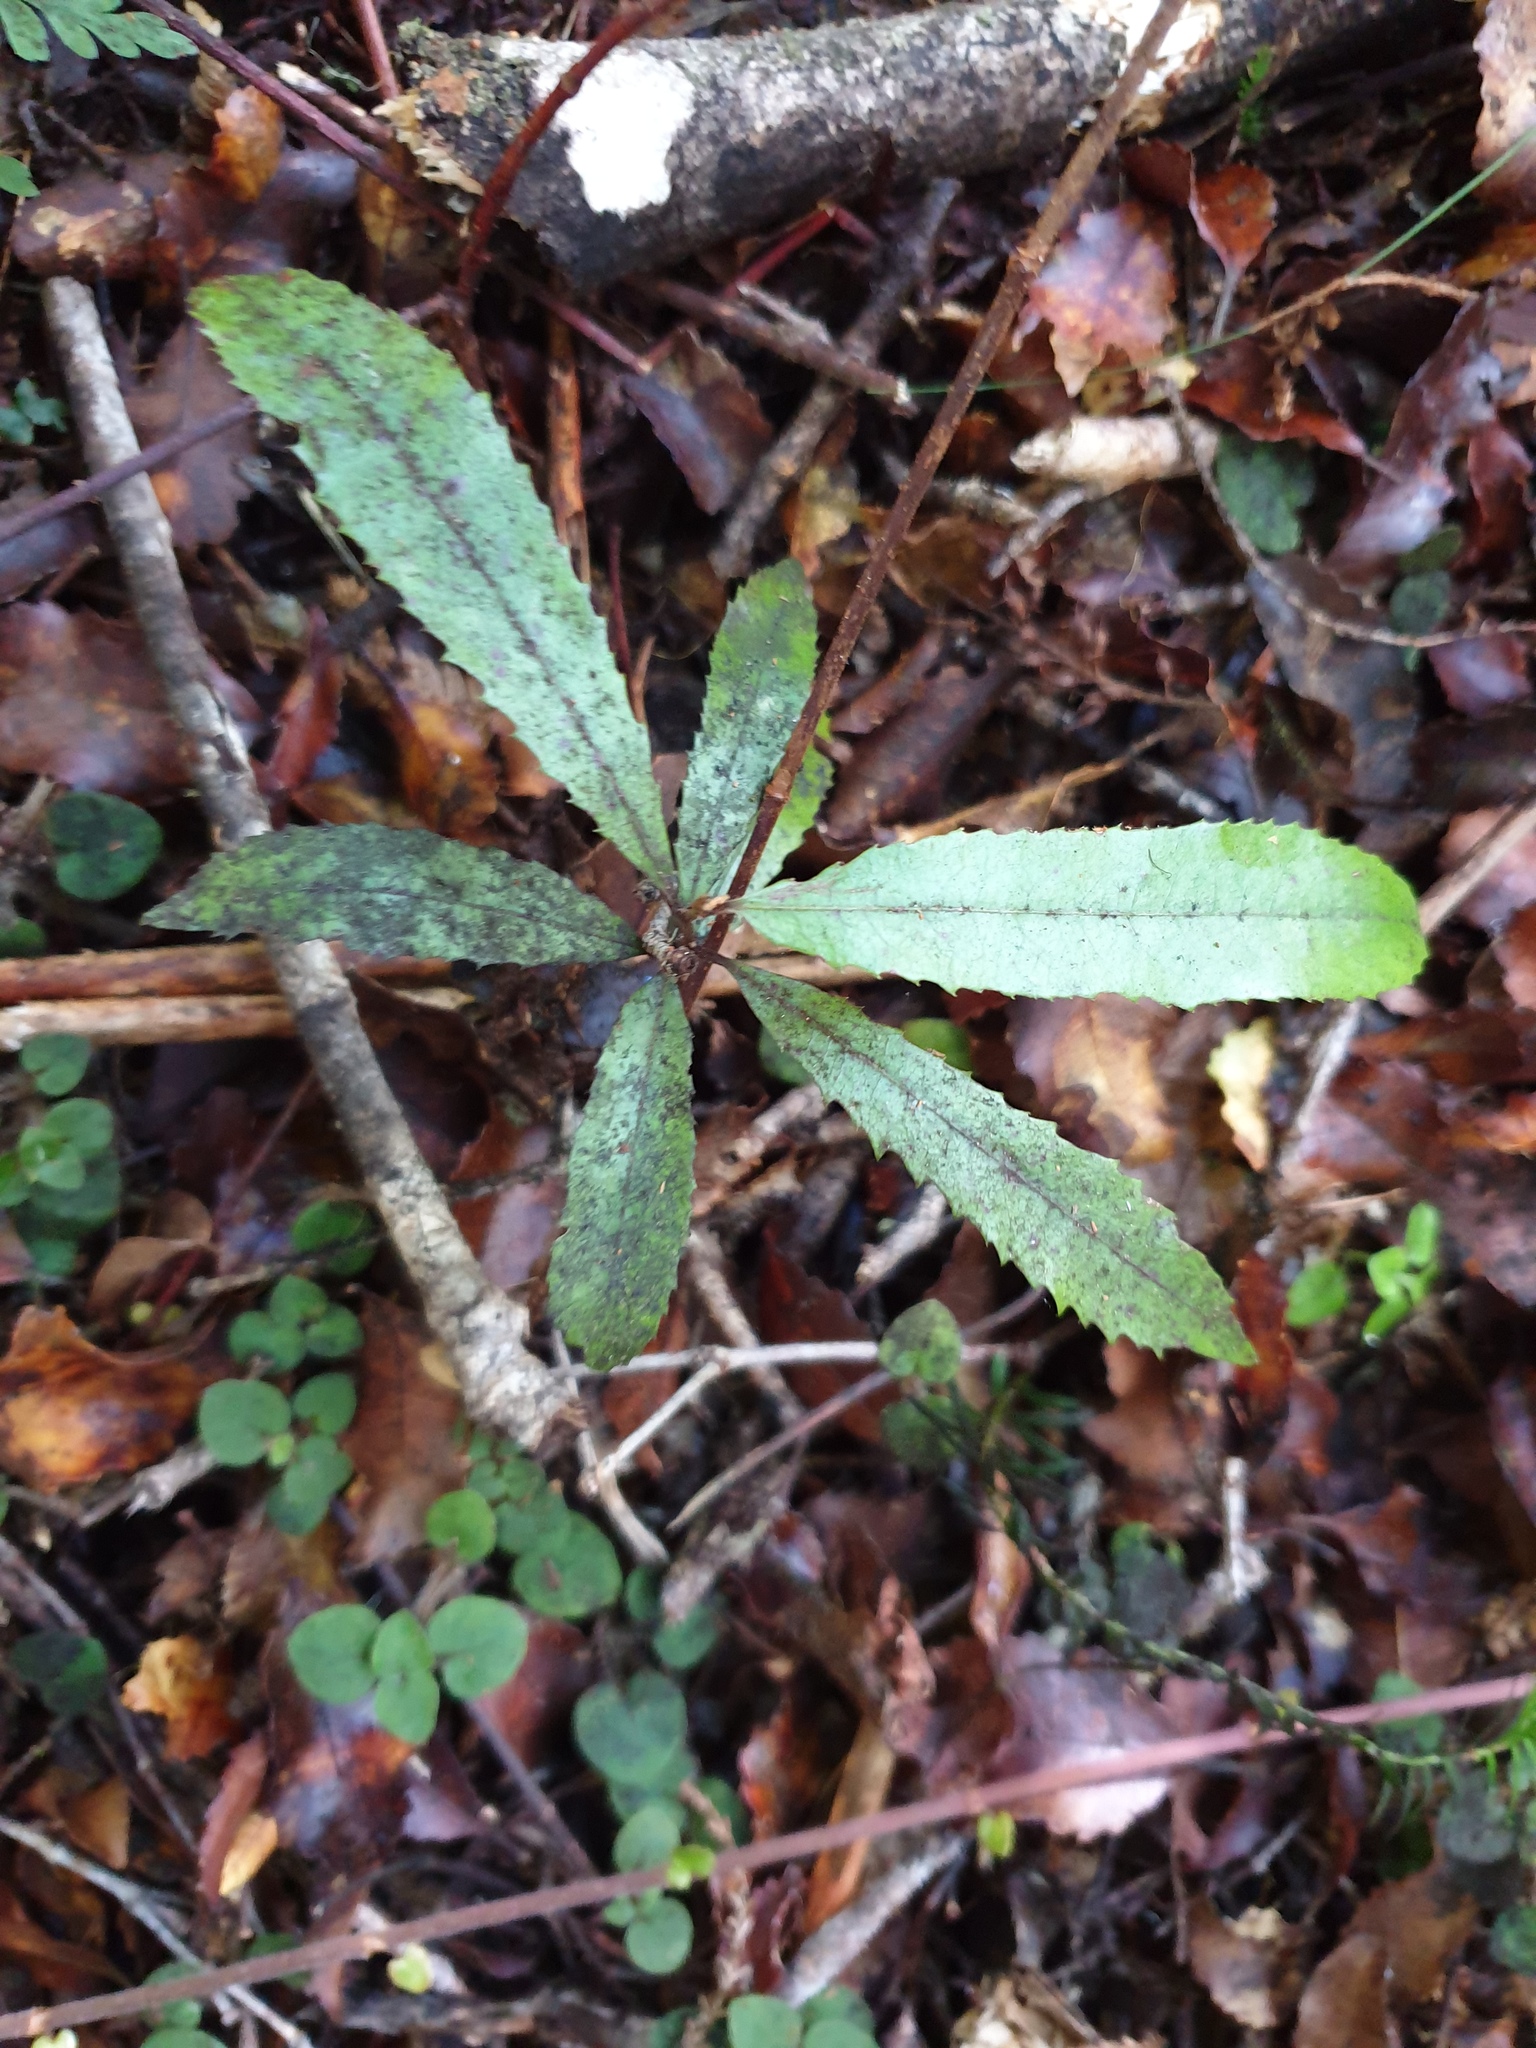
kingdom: Plantae
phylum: Tracheophyta
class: Magnoliopsida
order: Paracryphiales
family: Paracryphiaceae
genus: Quintinia
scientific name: Quintinia serrata
